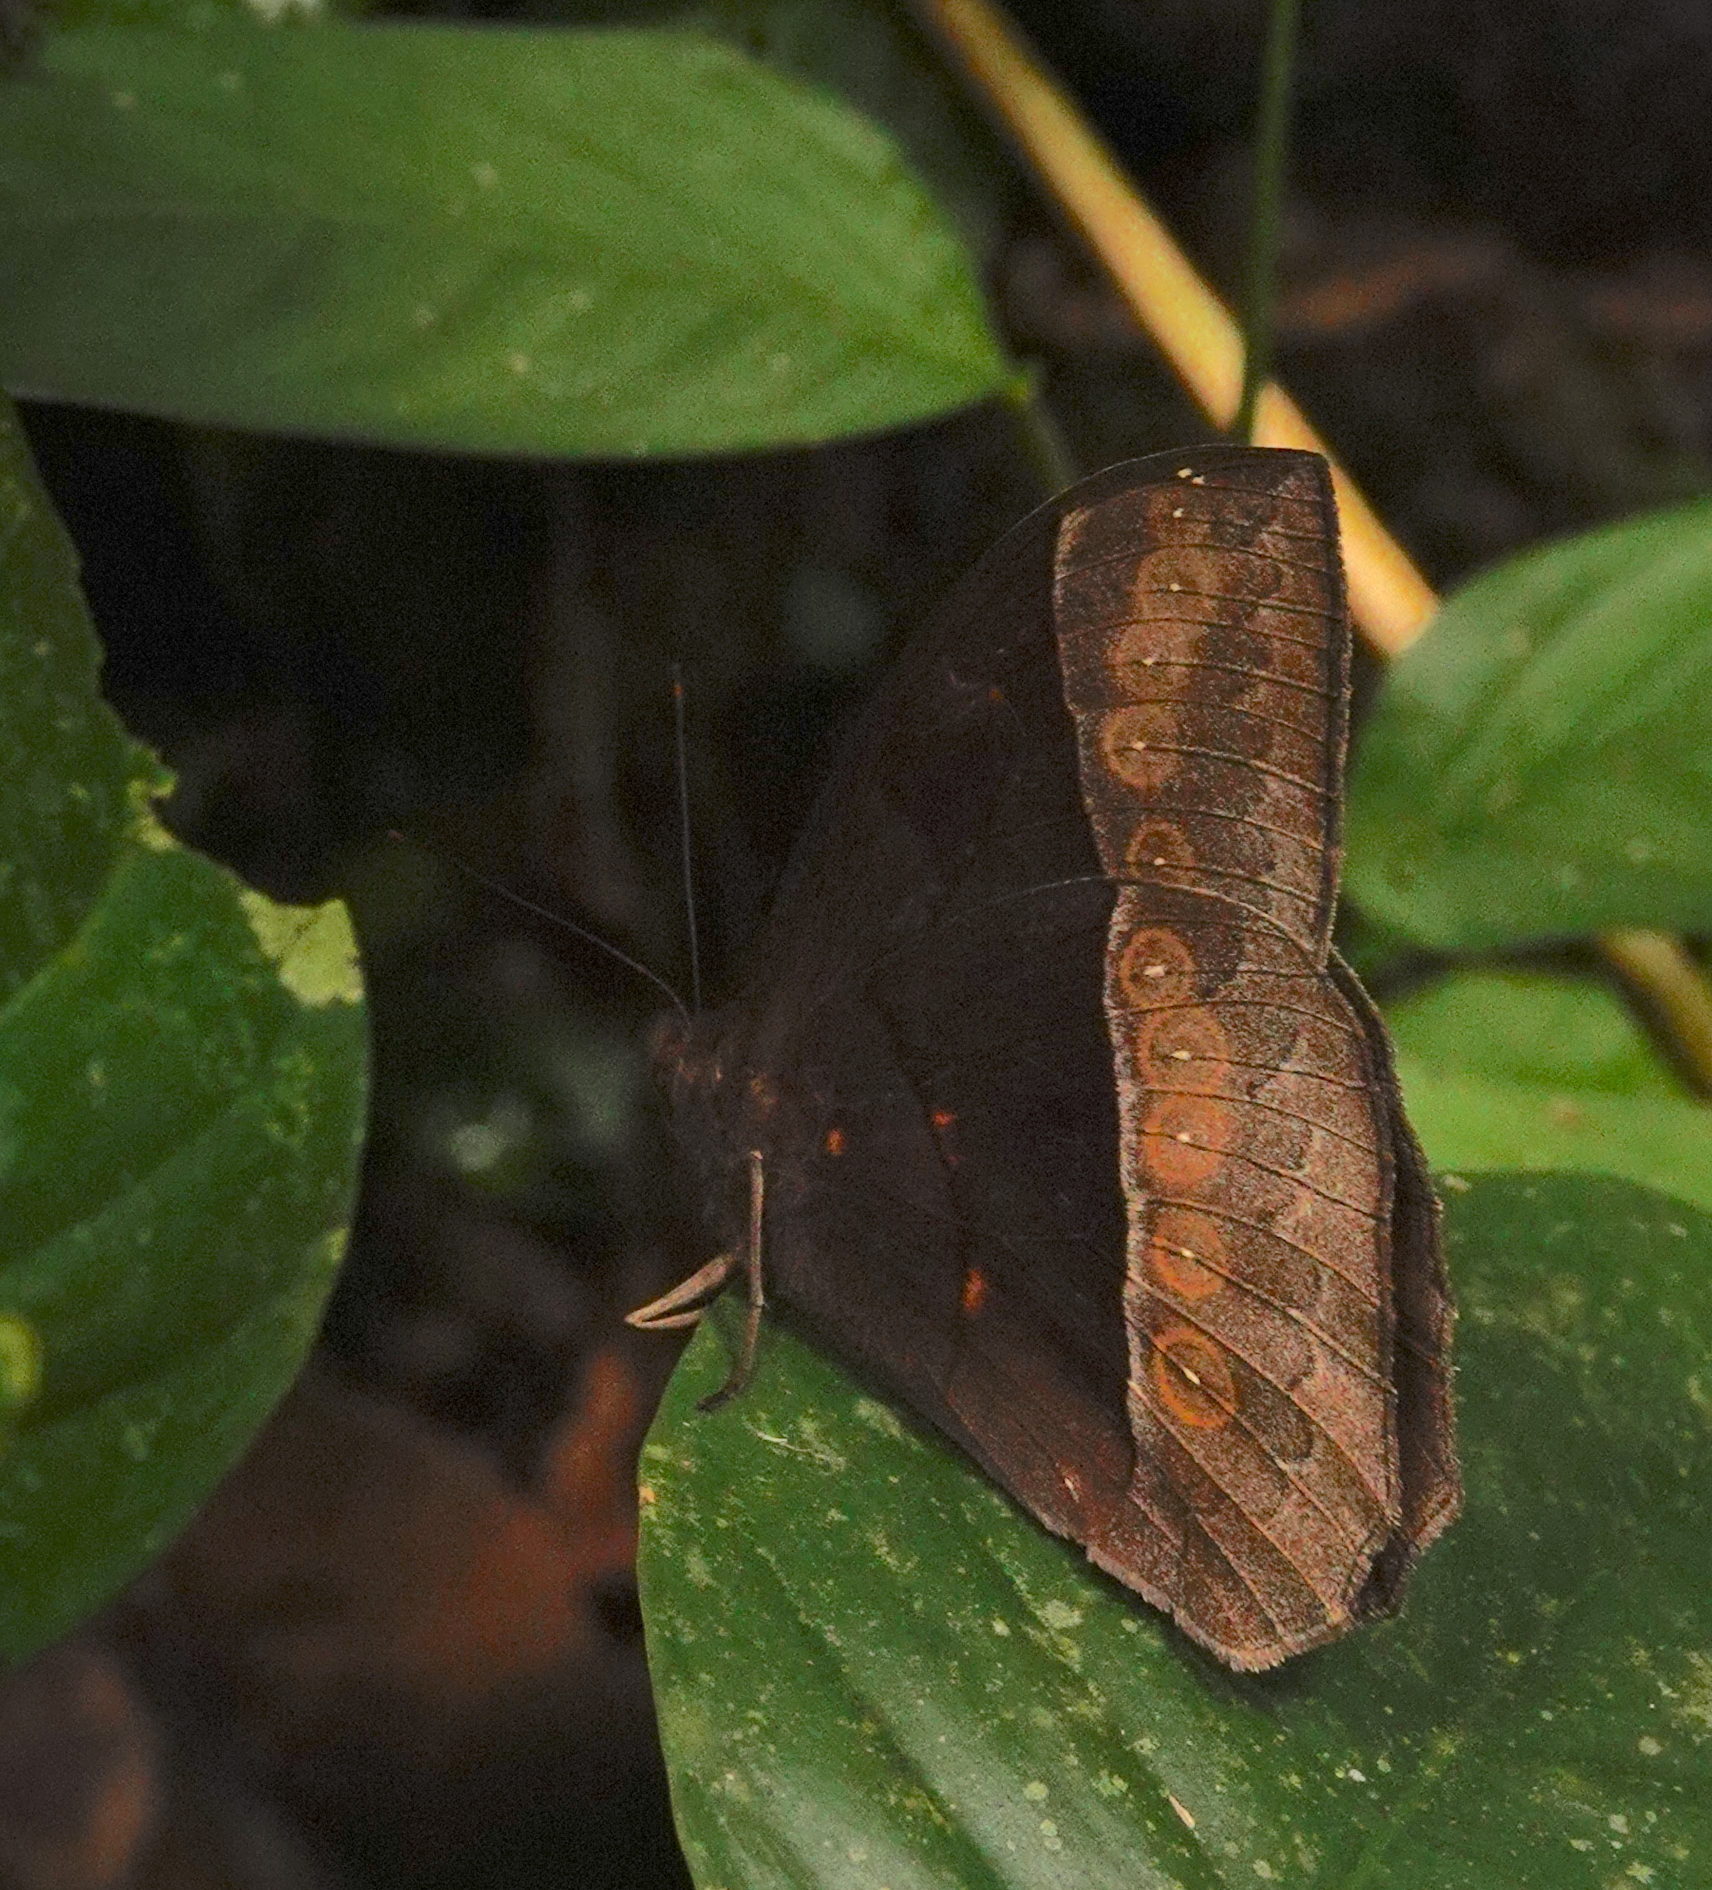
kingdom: Animalia
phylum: Arthropoda
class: Insecta
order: Lepidoptera
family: Nymphalidae
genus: Taygetis
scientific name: Taygetis oyapock
